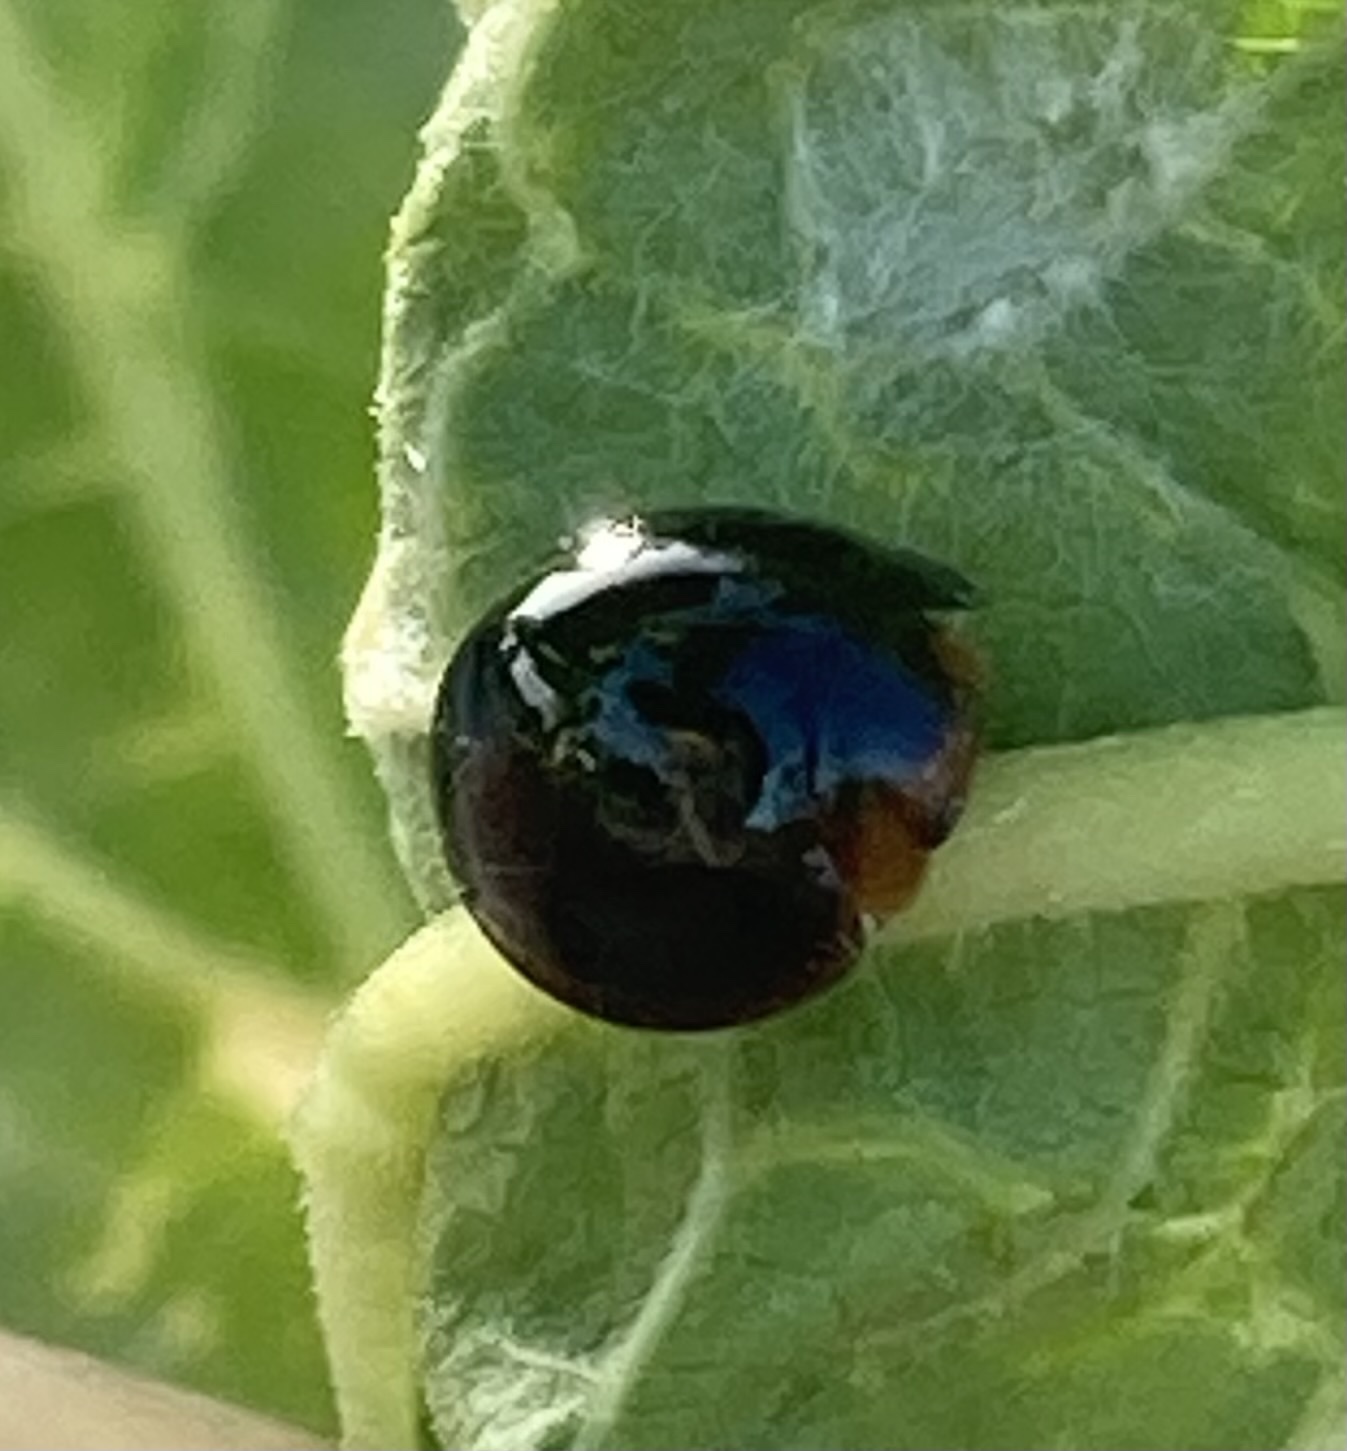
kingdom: Animalia
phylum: Arthropoda
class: Insecta
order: Coleoptera
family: Coccinellidae
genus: Chilocorus
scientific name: Chilocorus nigritus
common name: Ladybird beetle
